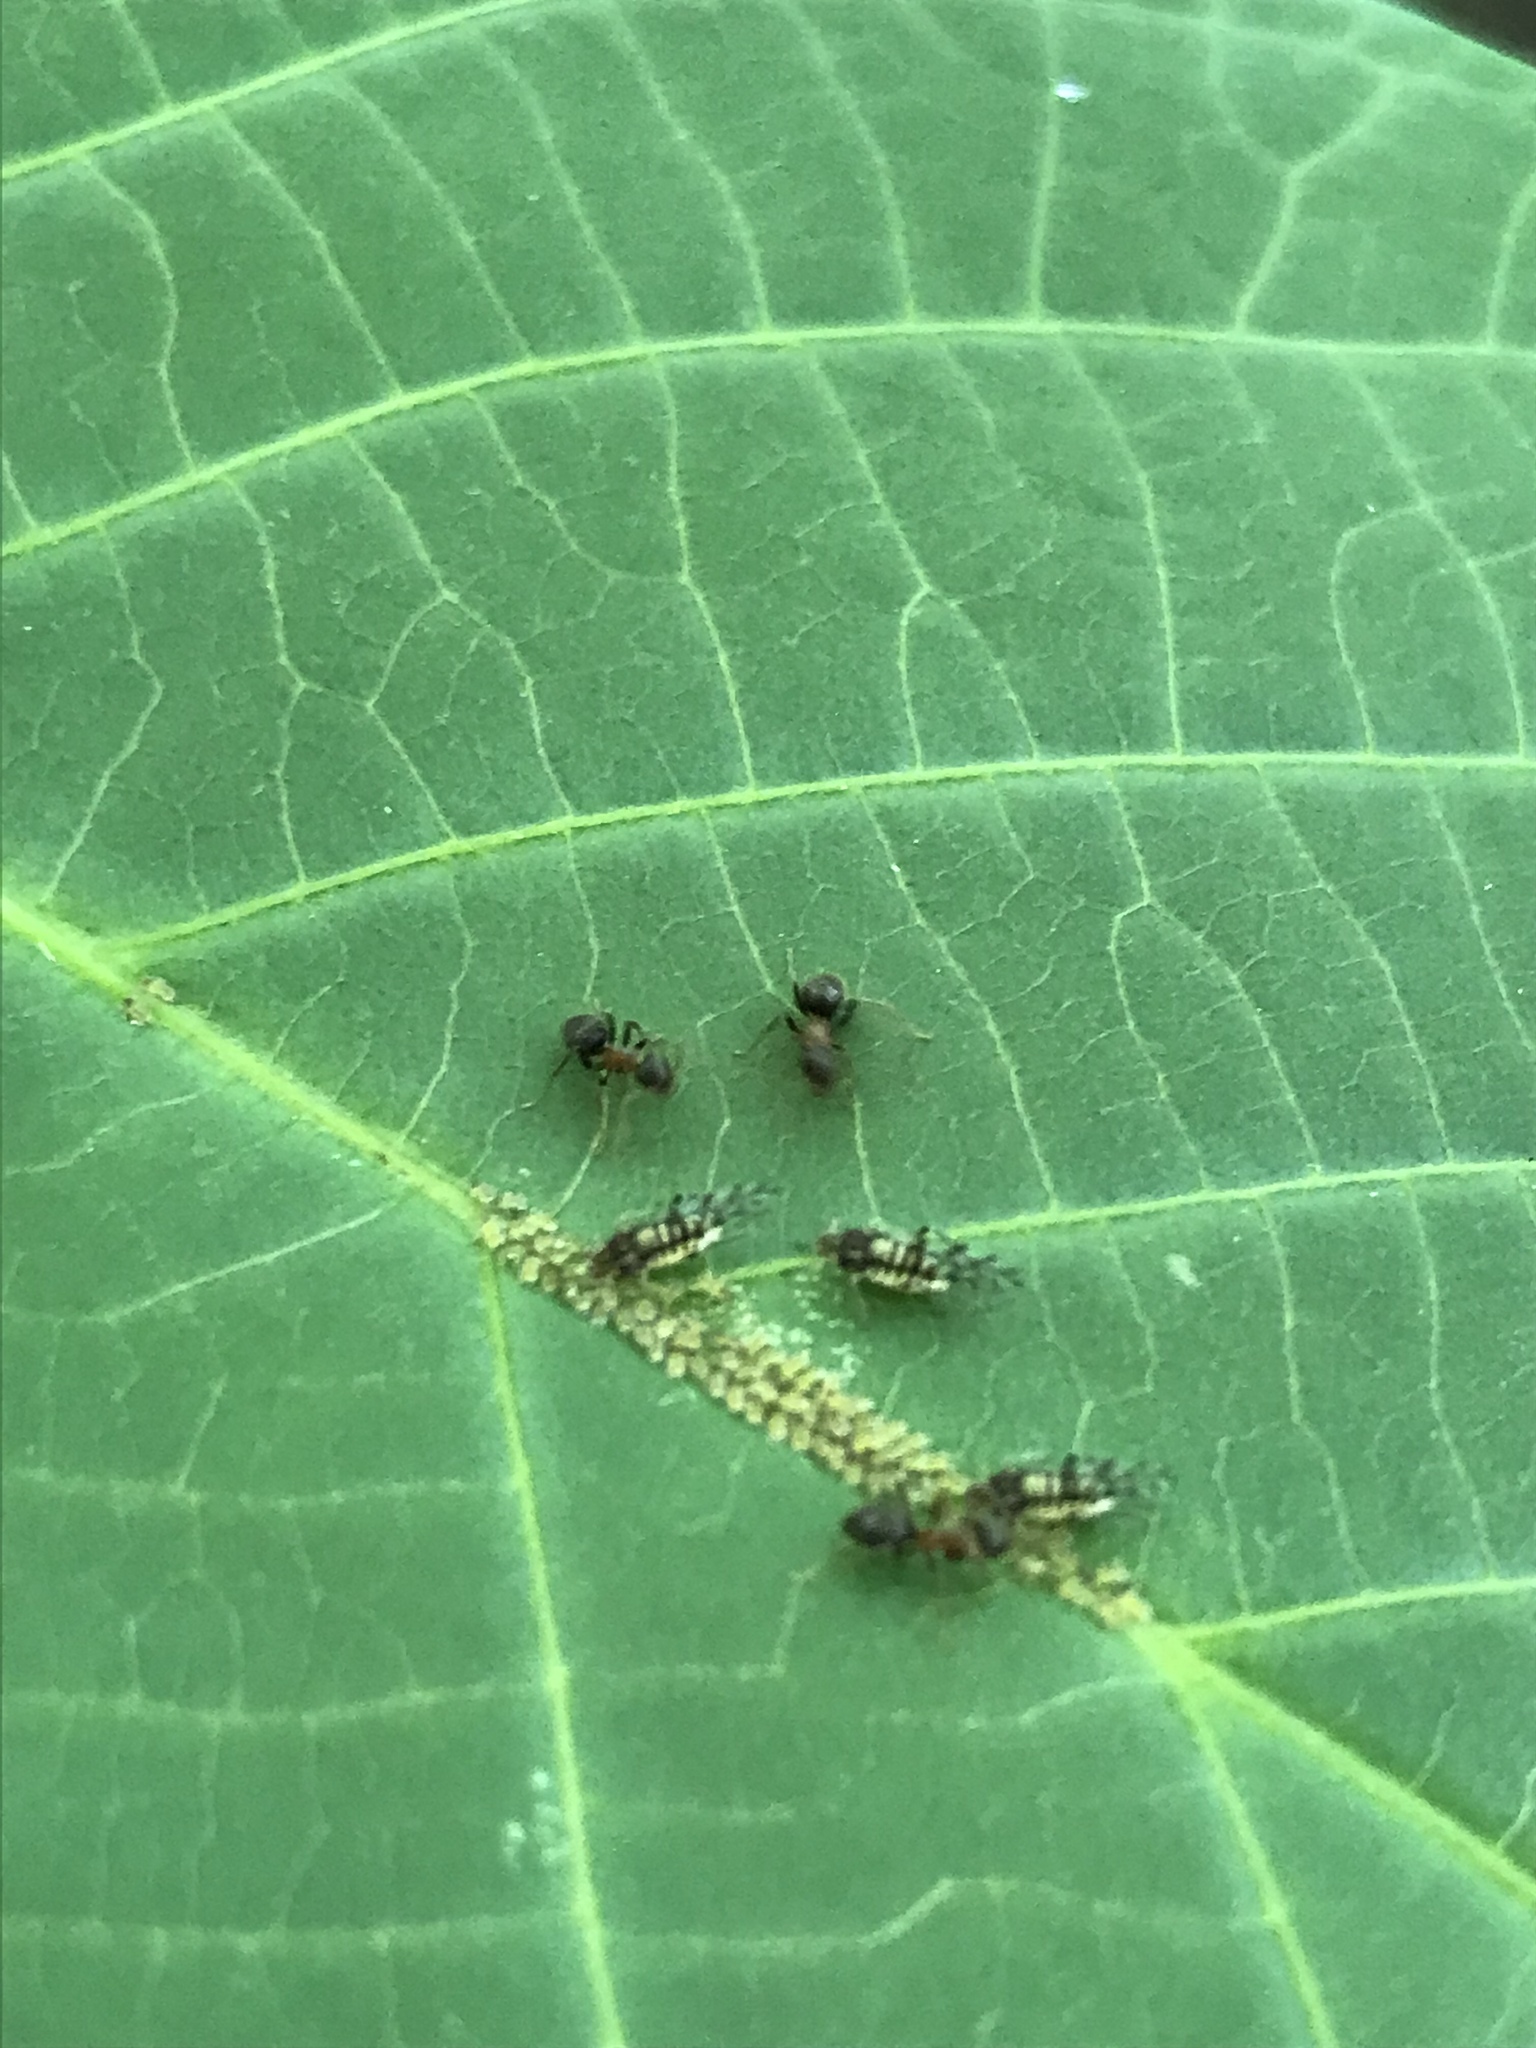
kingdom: Animalia
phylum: Arthropoda
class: Insecta
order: Hemiptera
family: Aphididae
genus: Panaphis
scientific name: Panaphis juglandis
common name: Large walnut aphid
